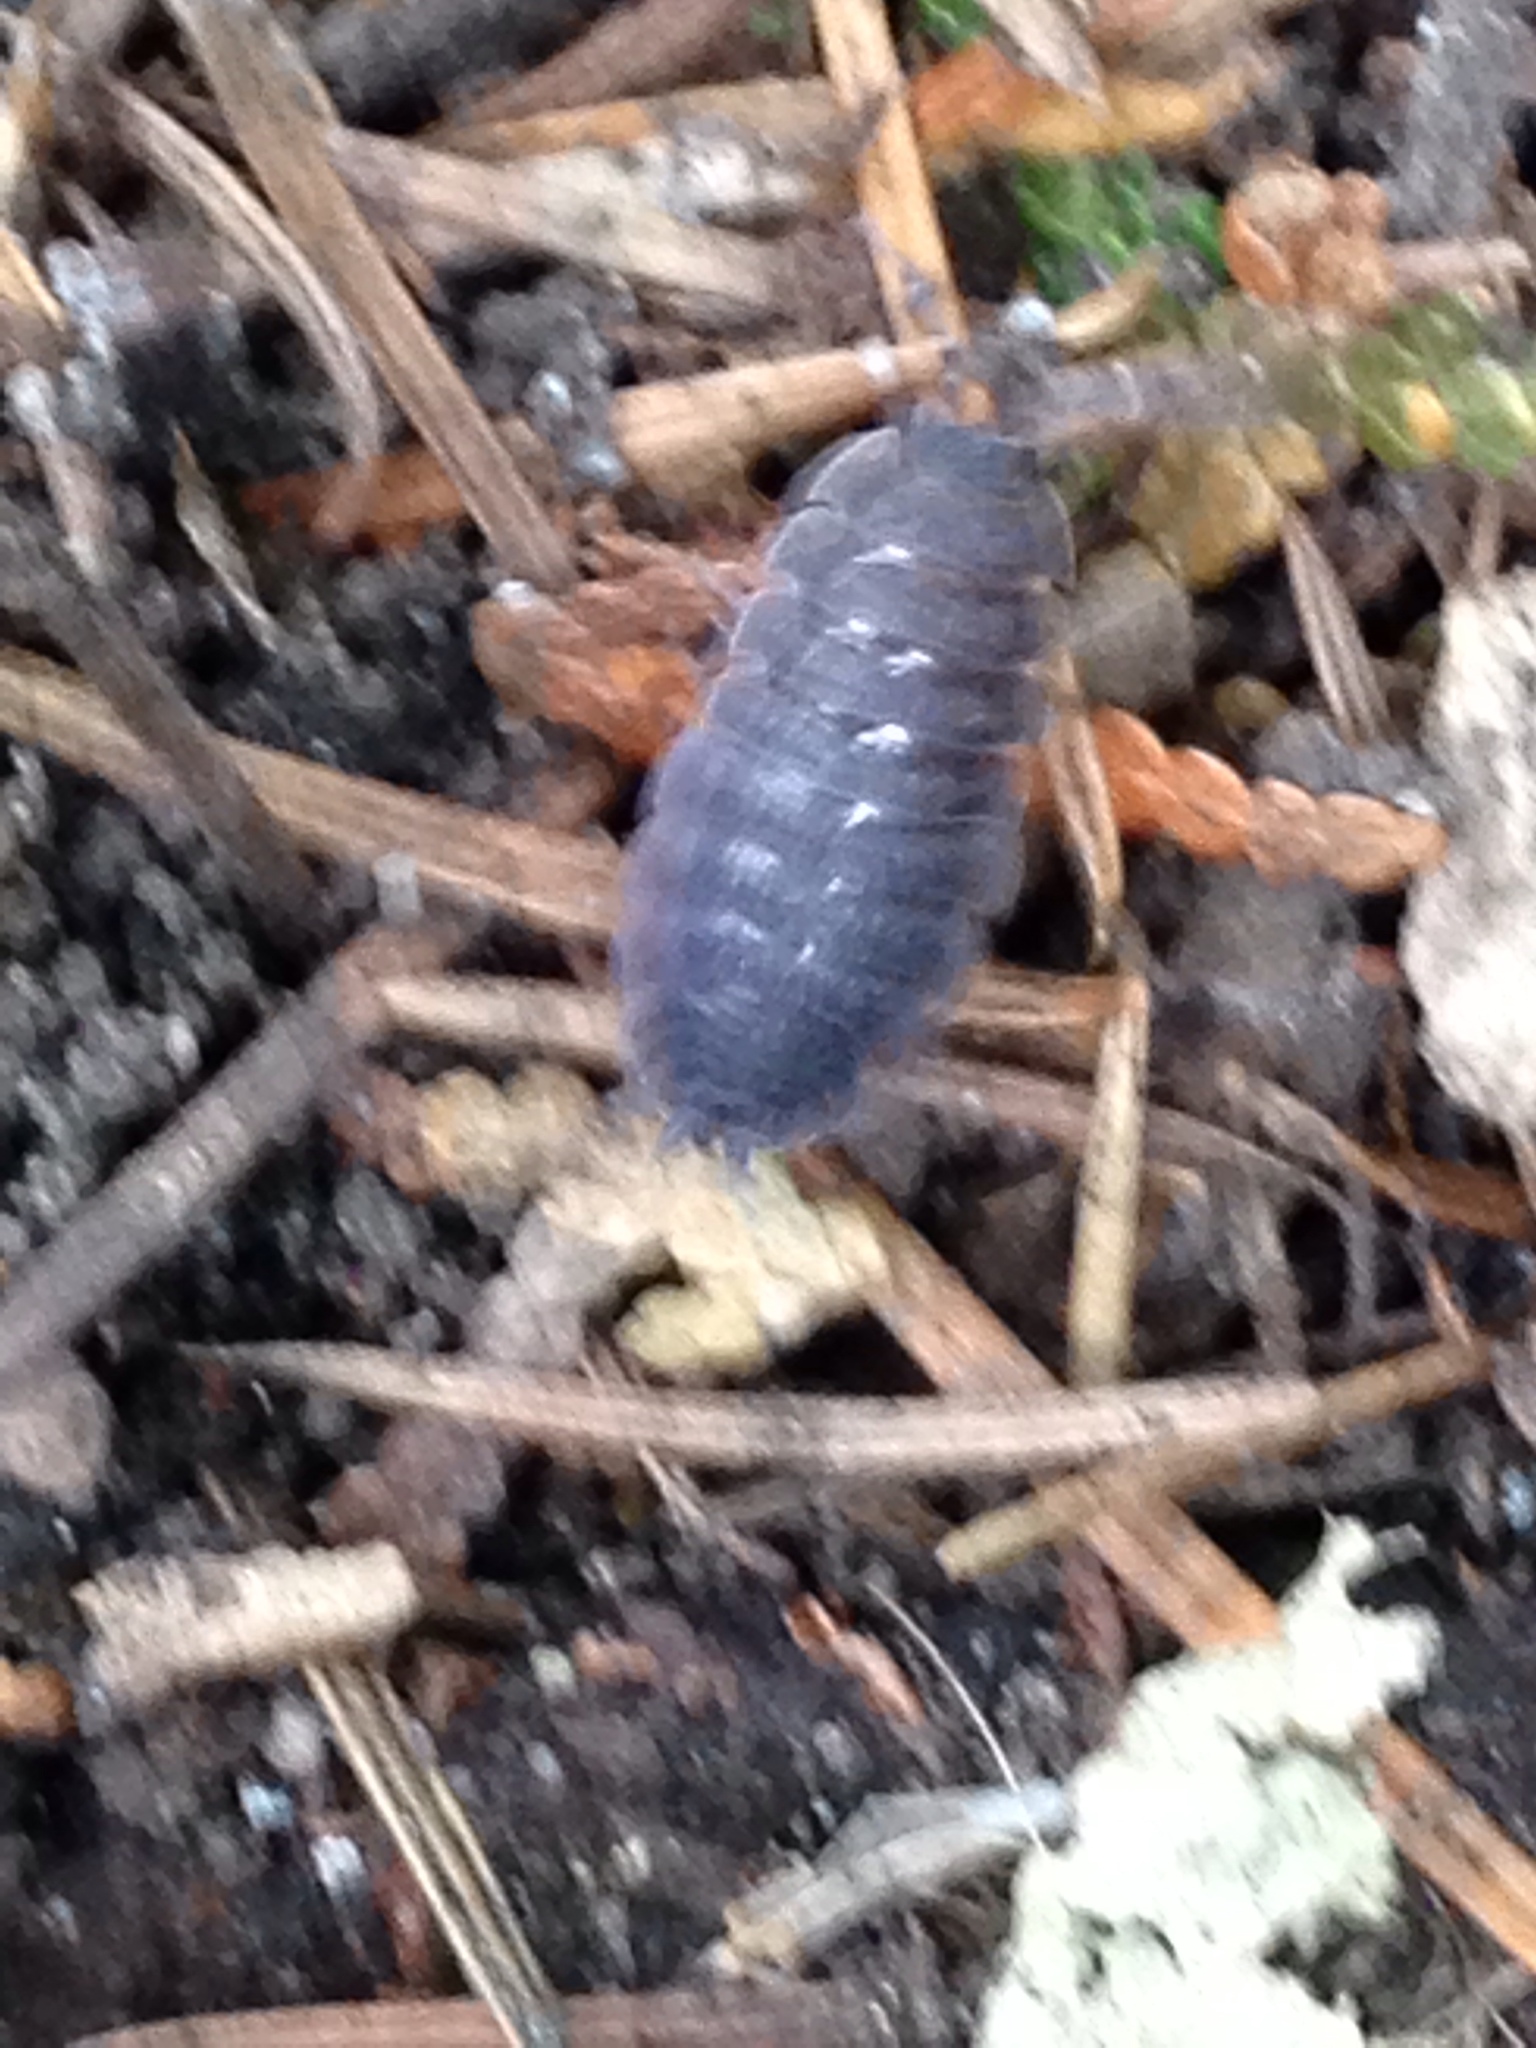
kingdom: Animalia
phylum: Arthropoda
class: Malacostraca
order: Isopoda
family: Porcellionidae
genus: Porcellio
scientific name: Porcellio scaber
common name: Common rough woodlouse
